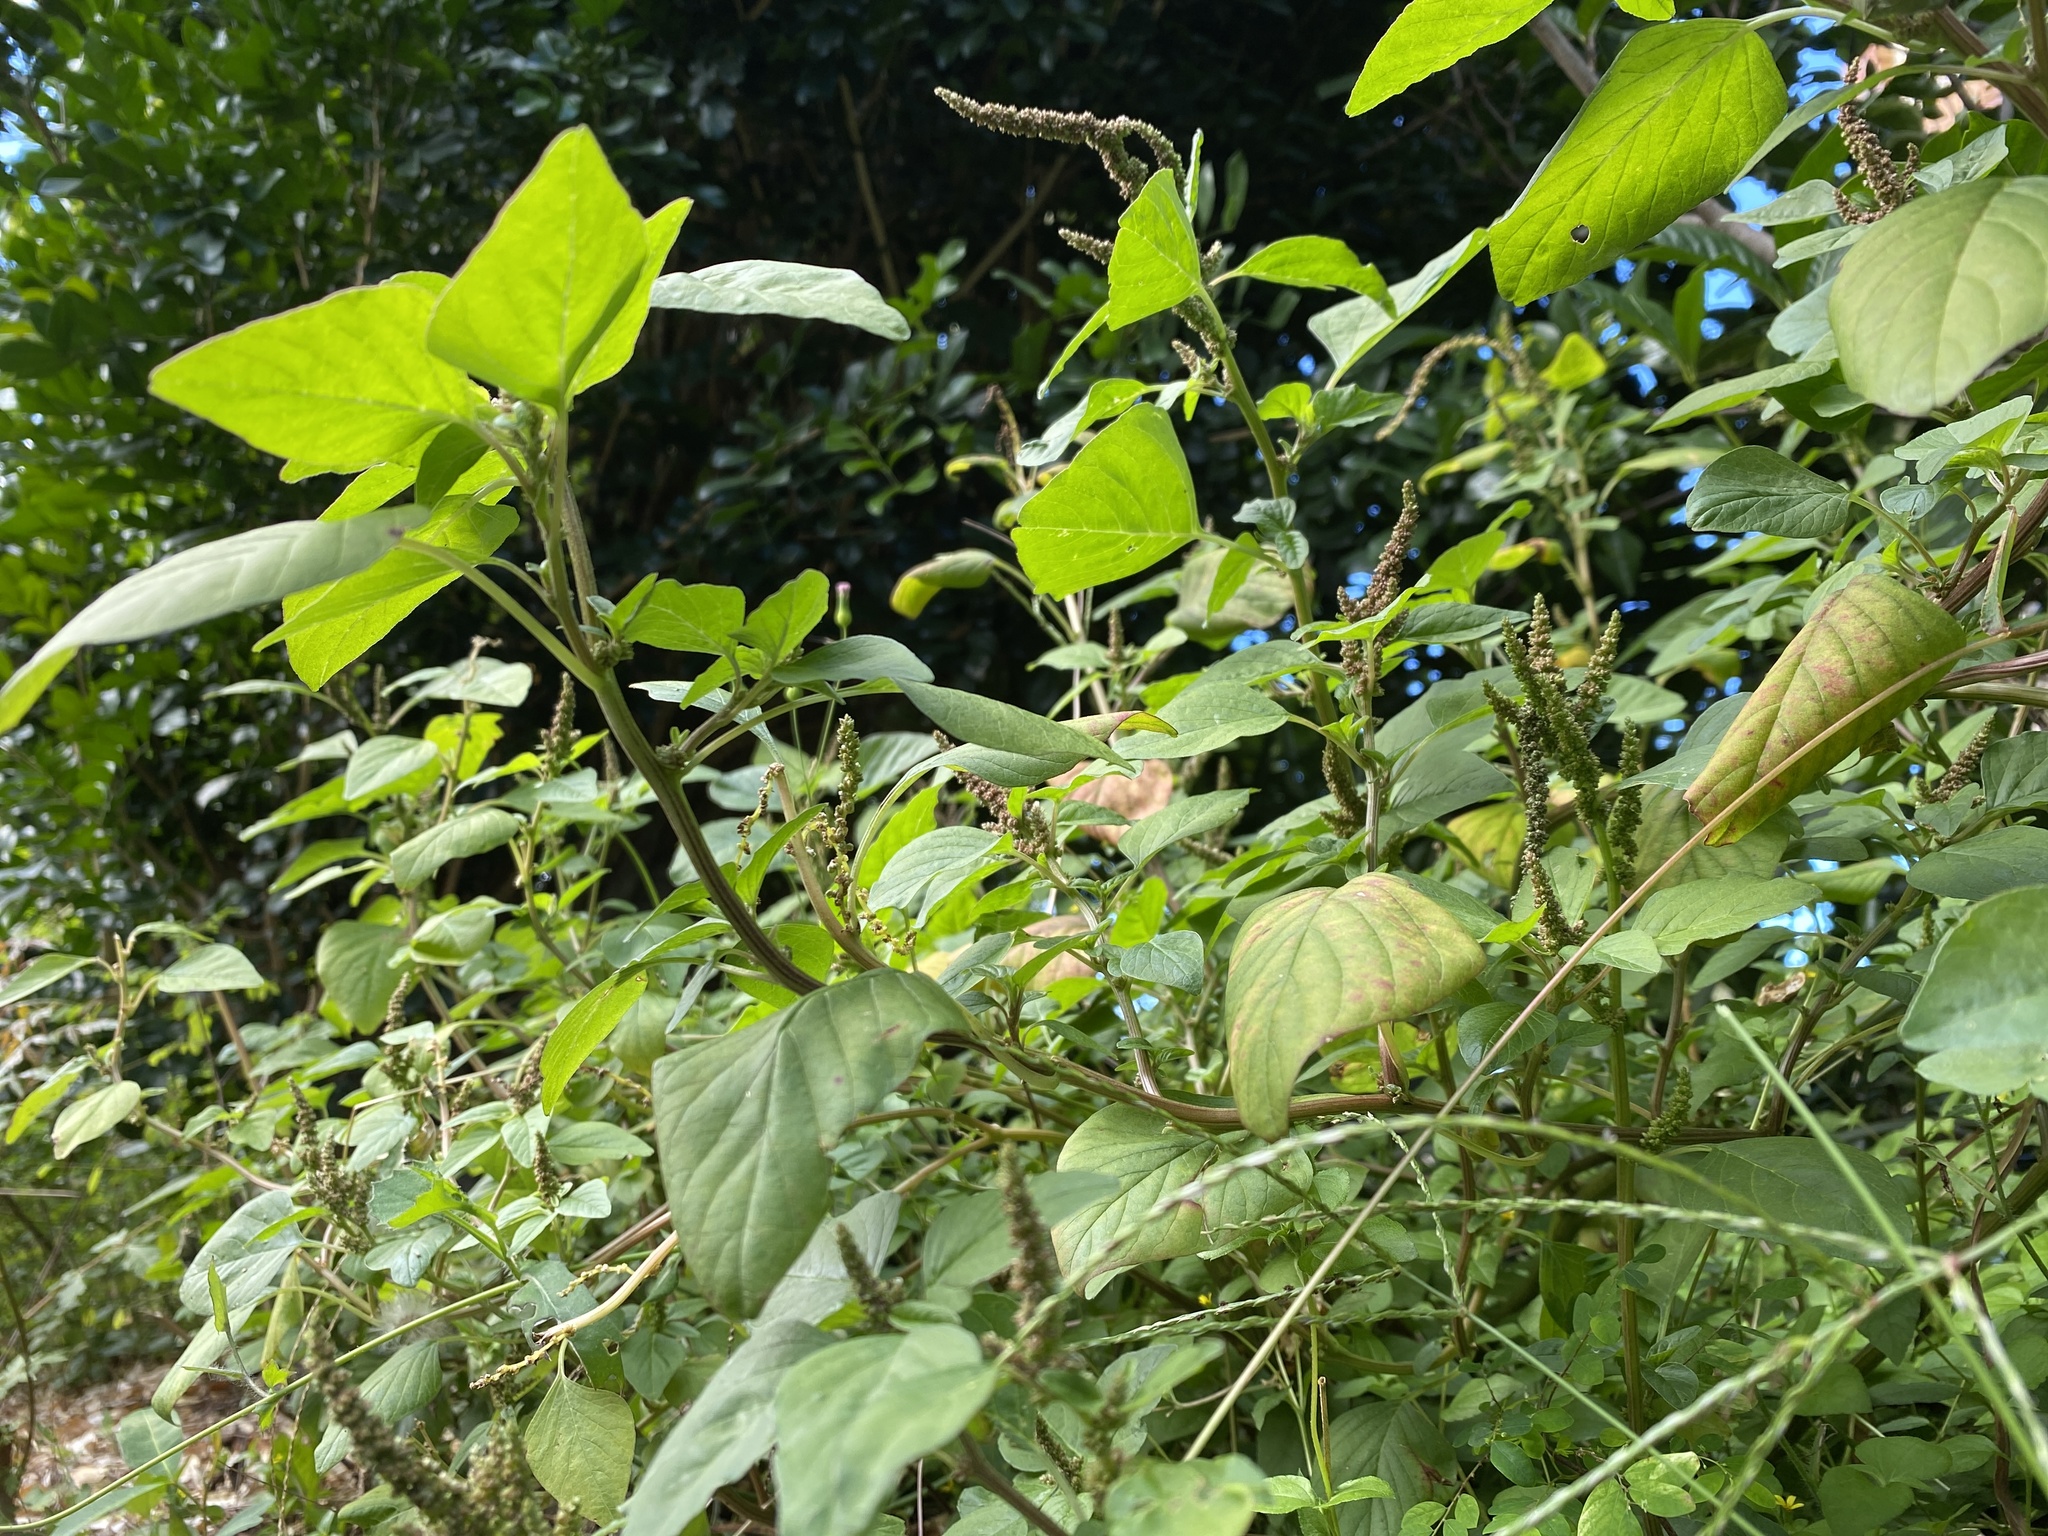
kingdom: Plantae
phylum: Tracheophyta
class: Magnoliopsida
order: Caryophyllales
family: Amaranthaceae
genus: Amaranthus
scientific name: Amaranthus viridis
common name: Slender amaranth
